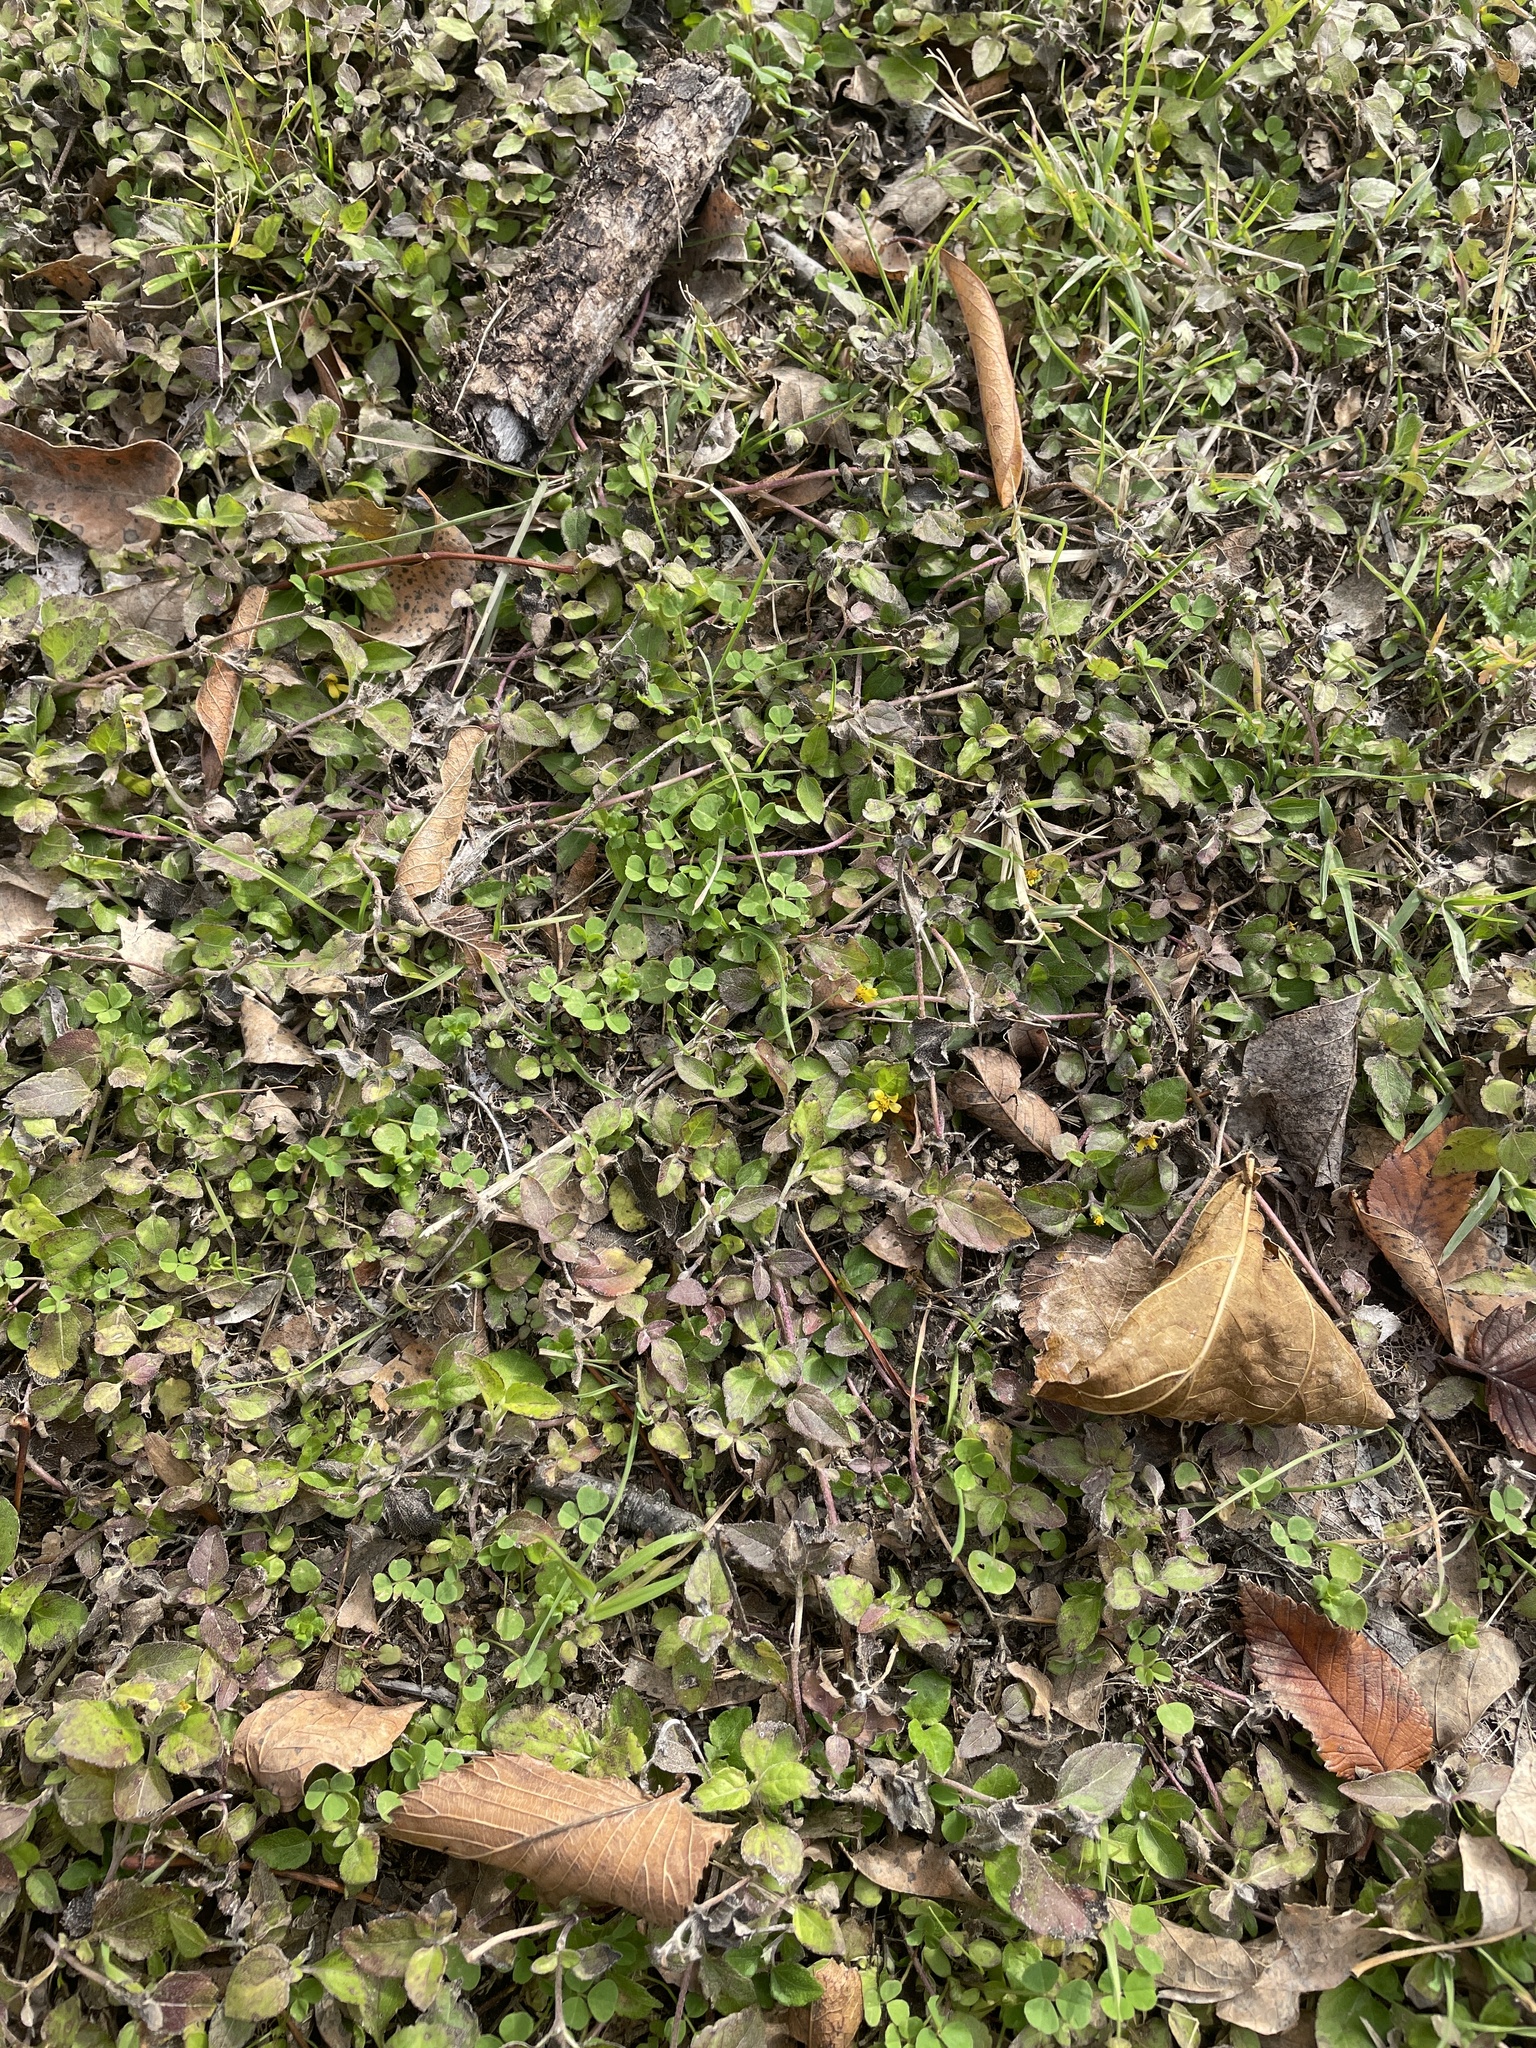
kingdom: Plantae
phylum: Tracheophyta
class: Magnoliopsida
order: Asterales
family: Asteraceae
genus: Calyptocarpus
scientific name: Calyptocarpus vialis
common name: Straggler daisy
